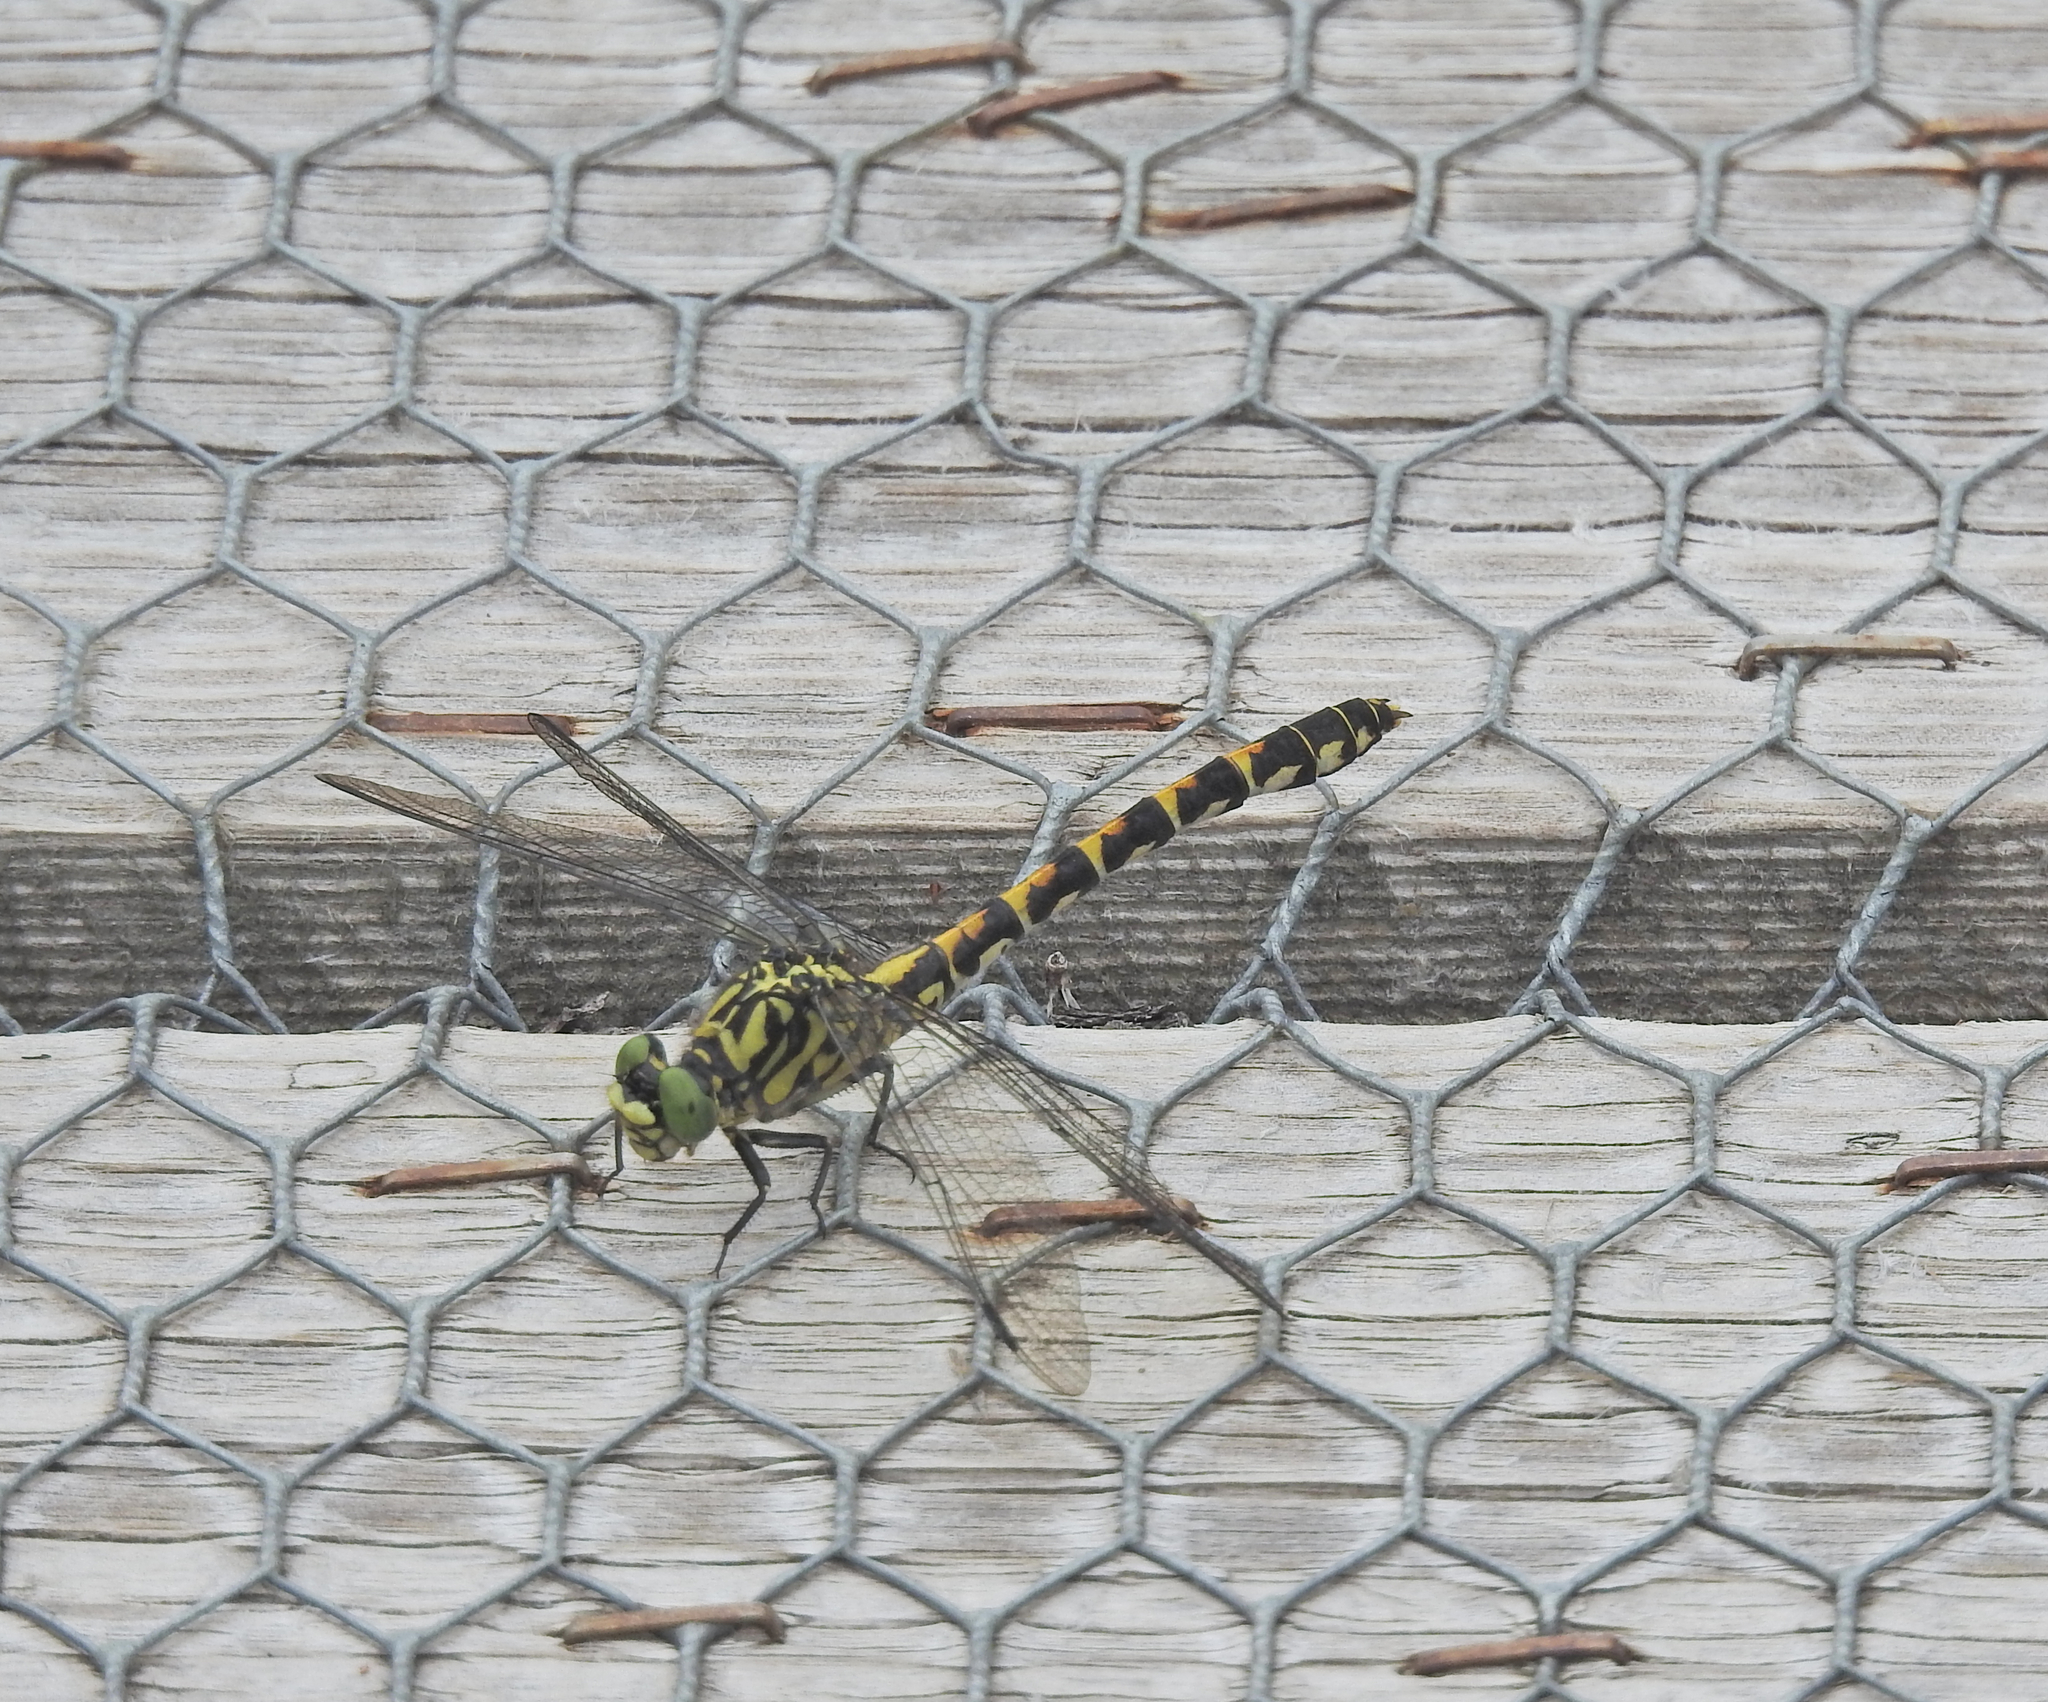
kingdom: Animalia
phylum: Arthropoda
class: Insecta
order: Odonata
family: Gomphidae
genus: Onychogomphus
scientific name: Onychogomphus forcipatus
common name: Small pincertail
